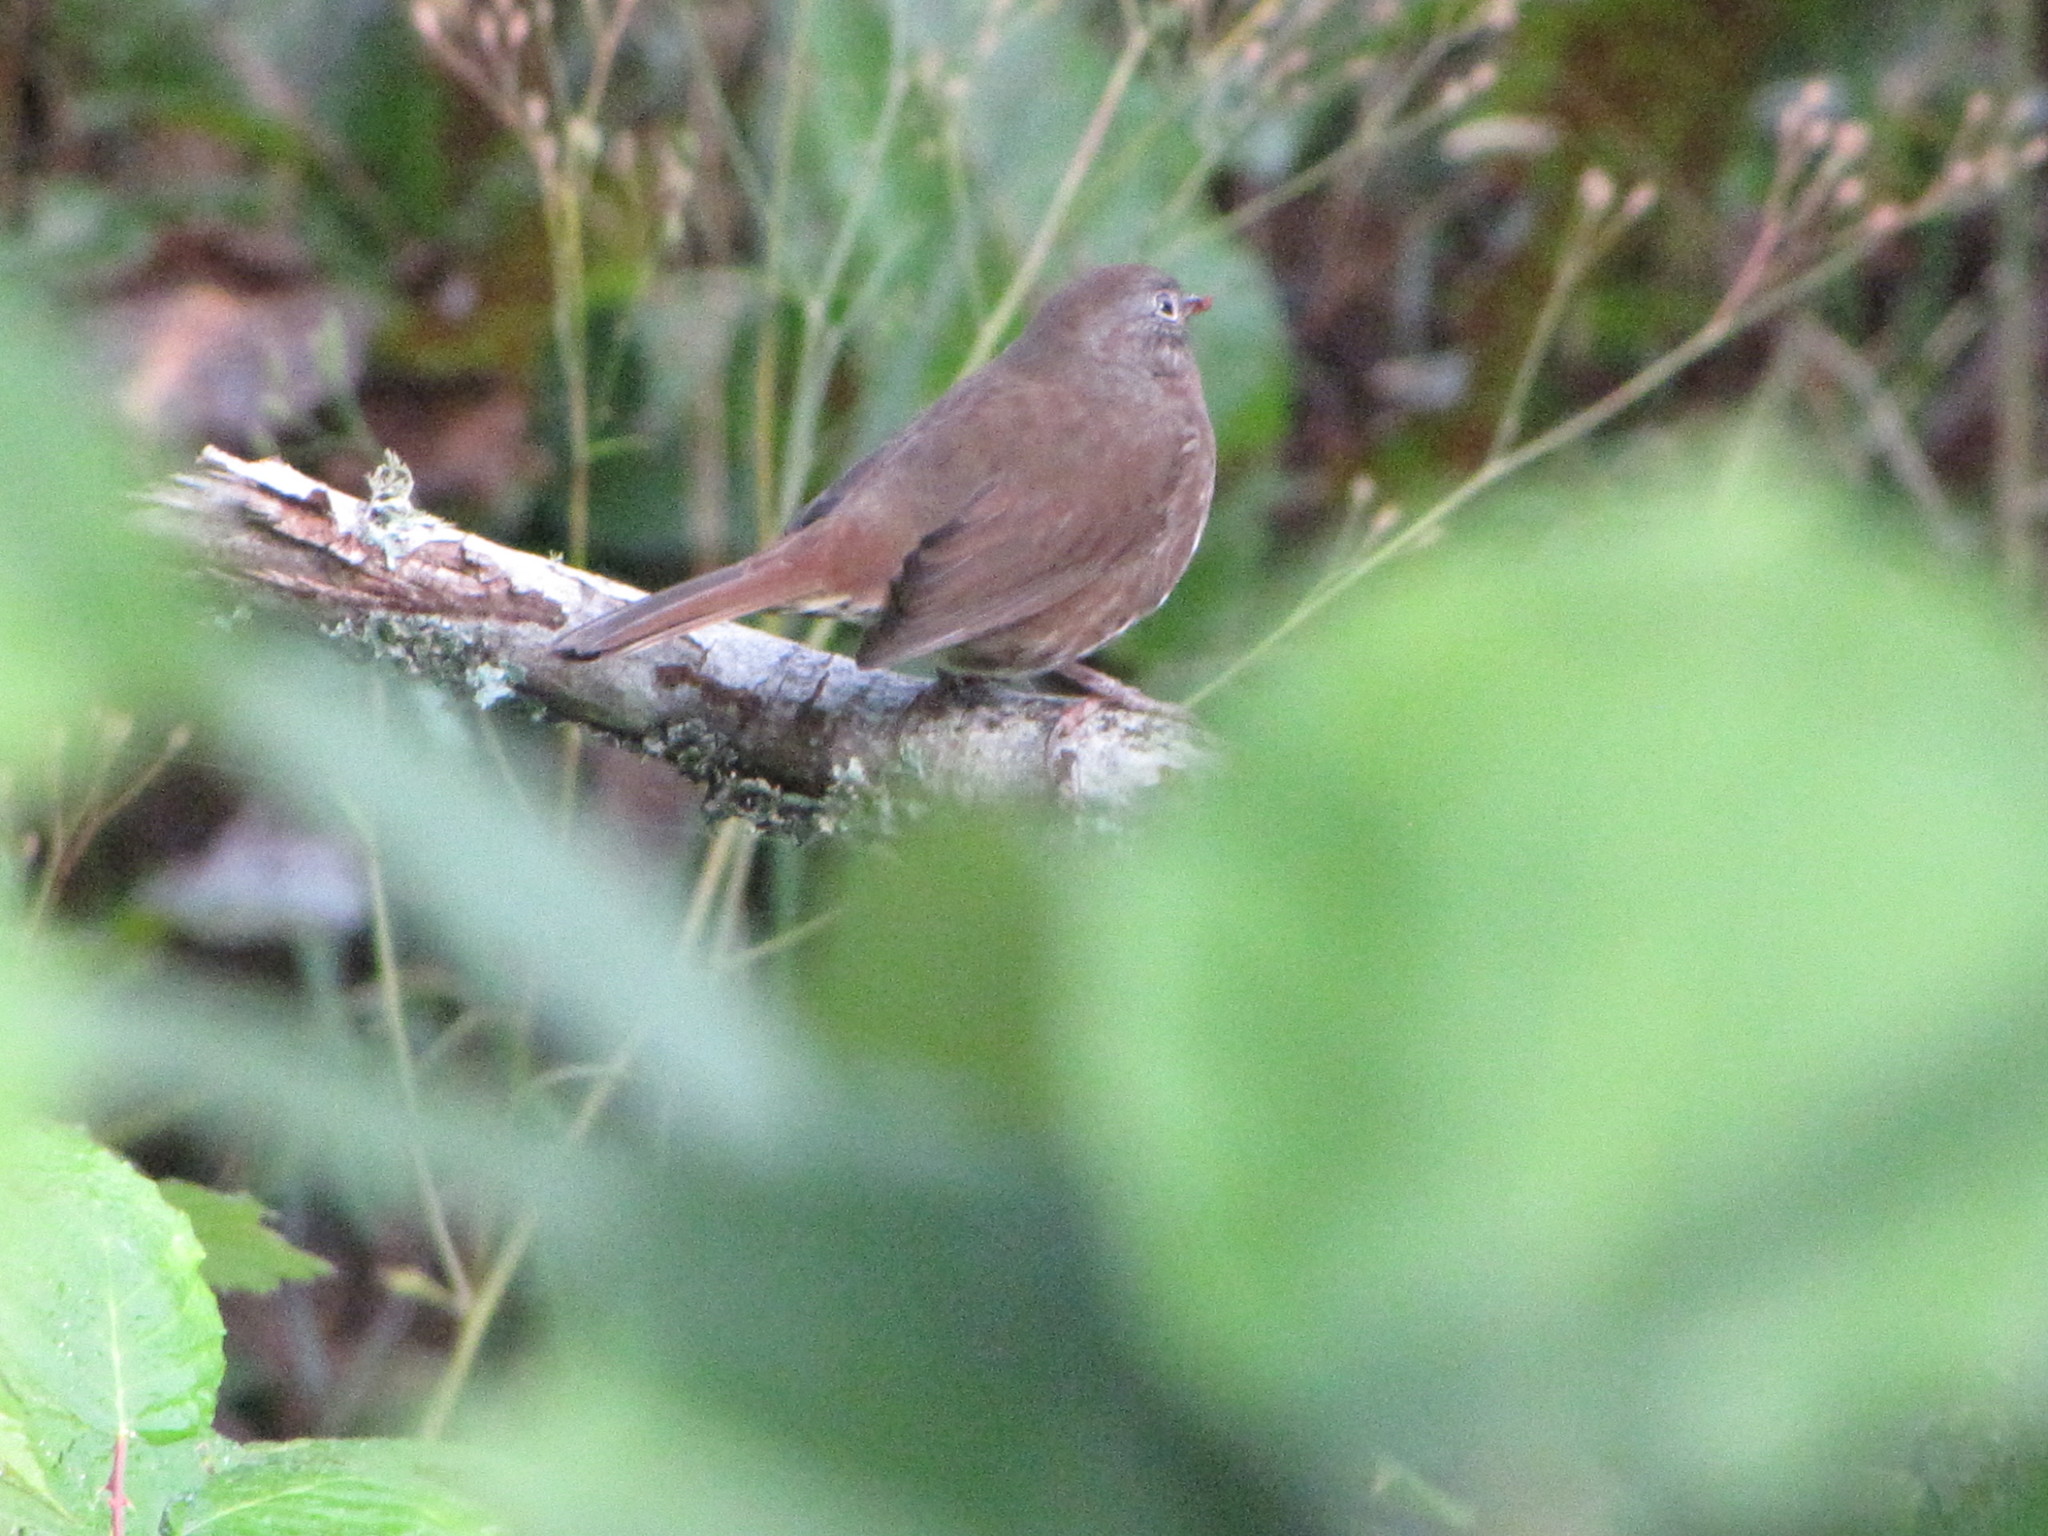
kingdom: Animalia
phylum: Chordata
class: Aves
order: Passeriformes
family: Passerellidae
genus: Passerella
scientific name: Passerella iliaca
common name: Fox sparrow
